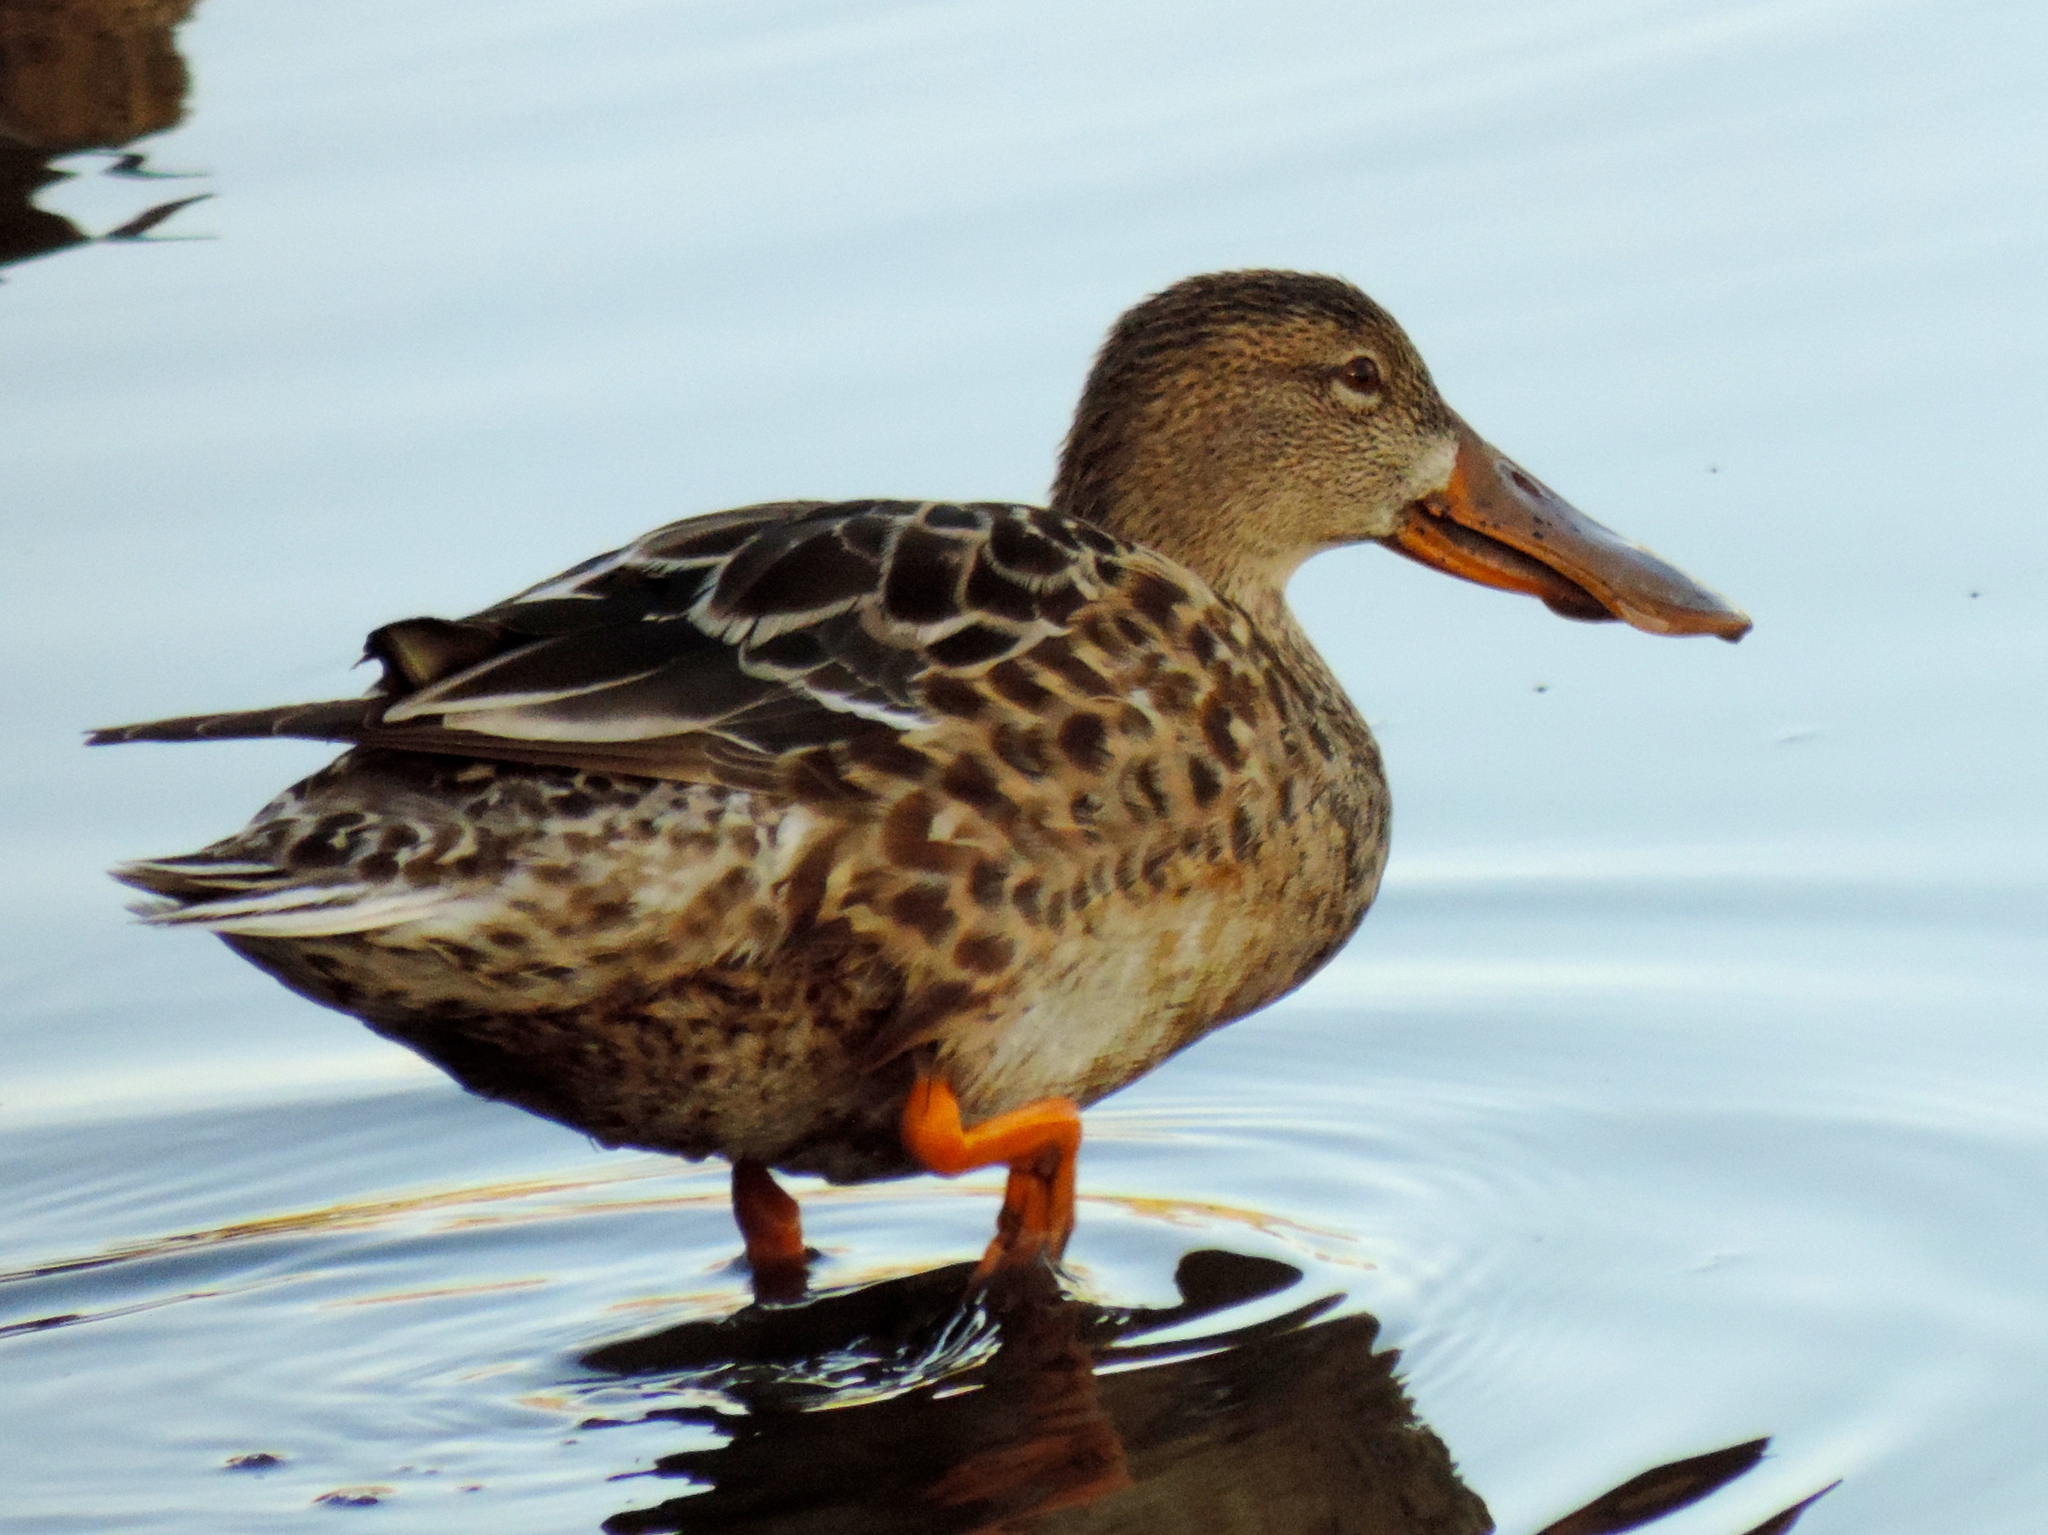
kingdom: Animalia
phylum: Chordata
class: Aves
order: Anseriformes
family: Anatidae
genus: Spatula
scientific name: Spatula clypeata
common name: Northern shoveler
